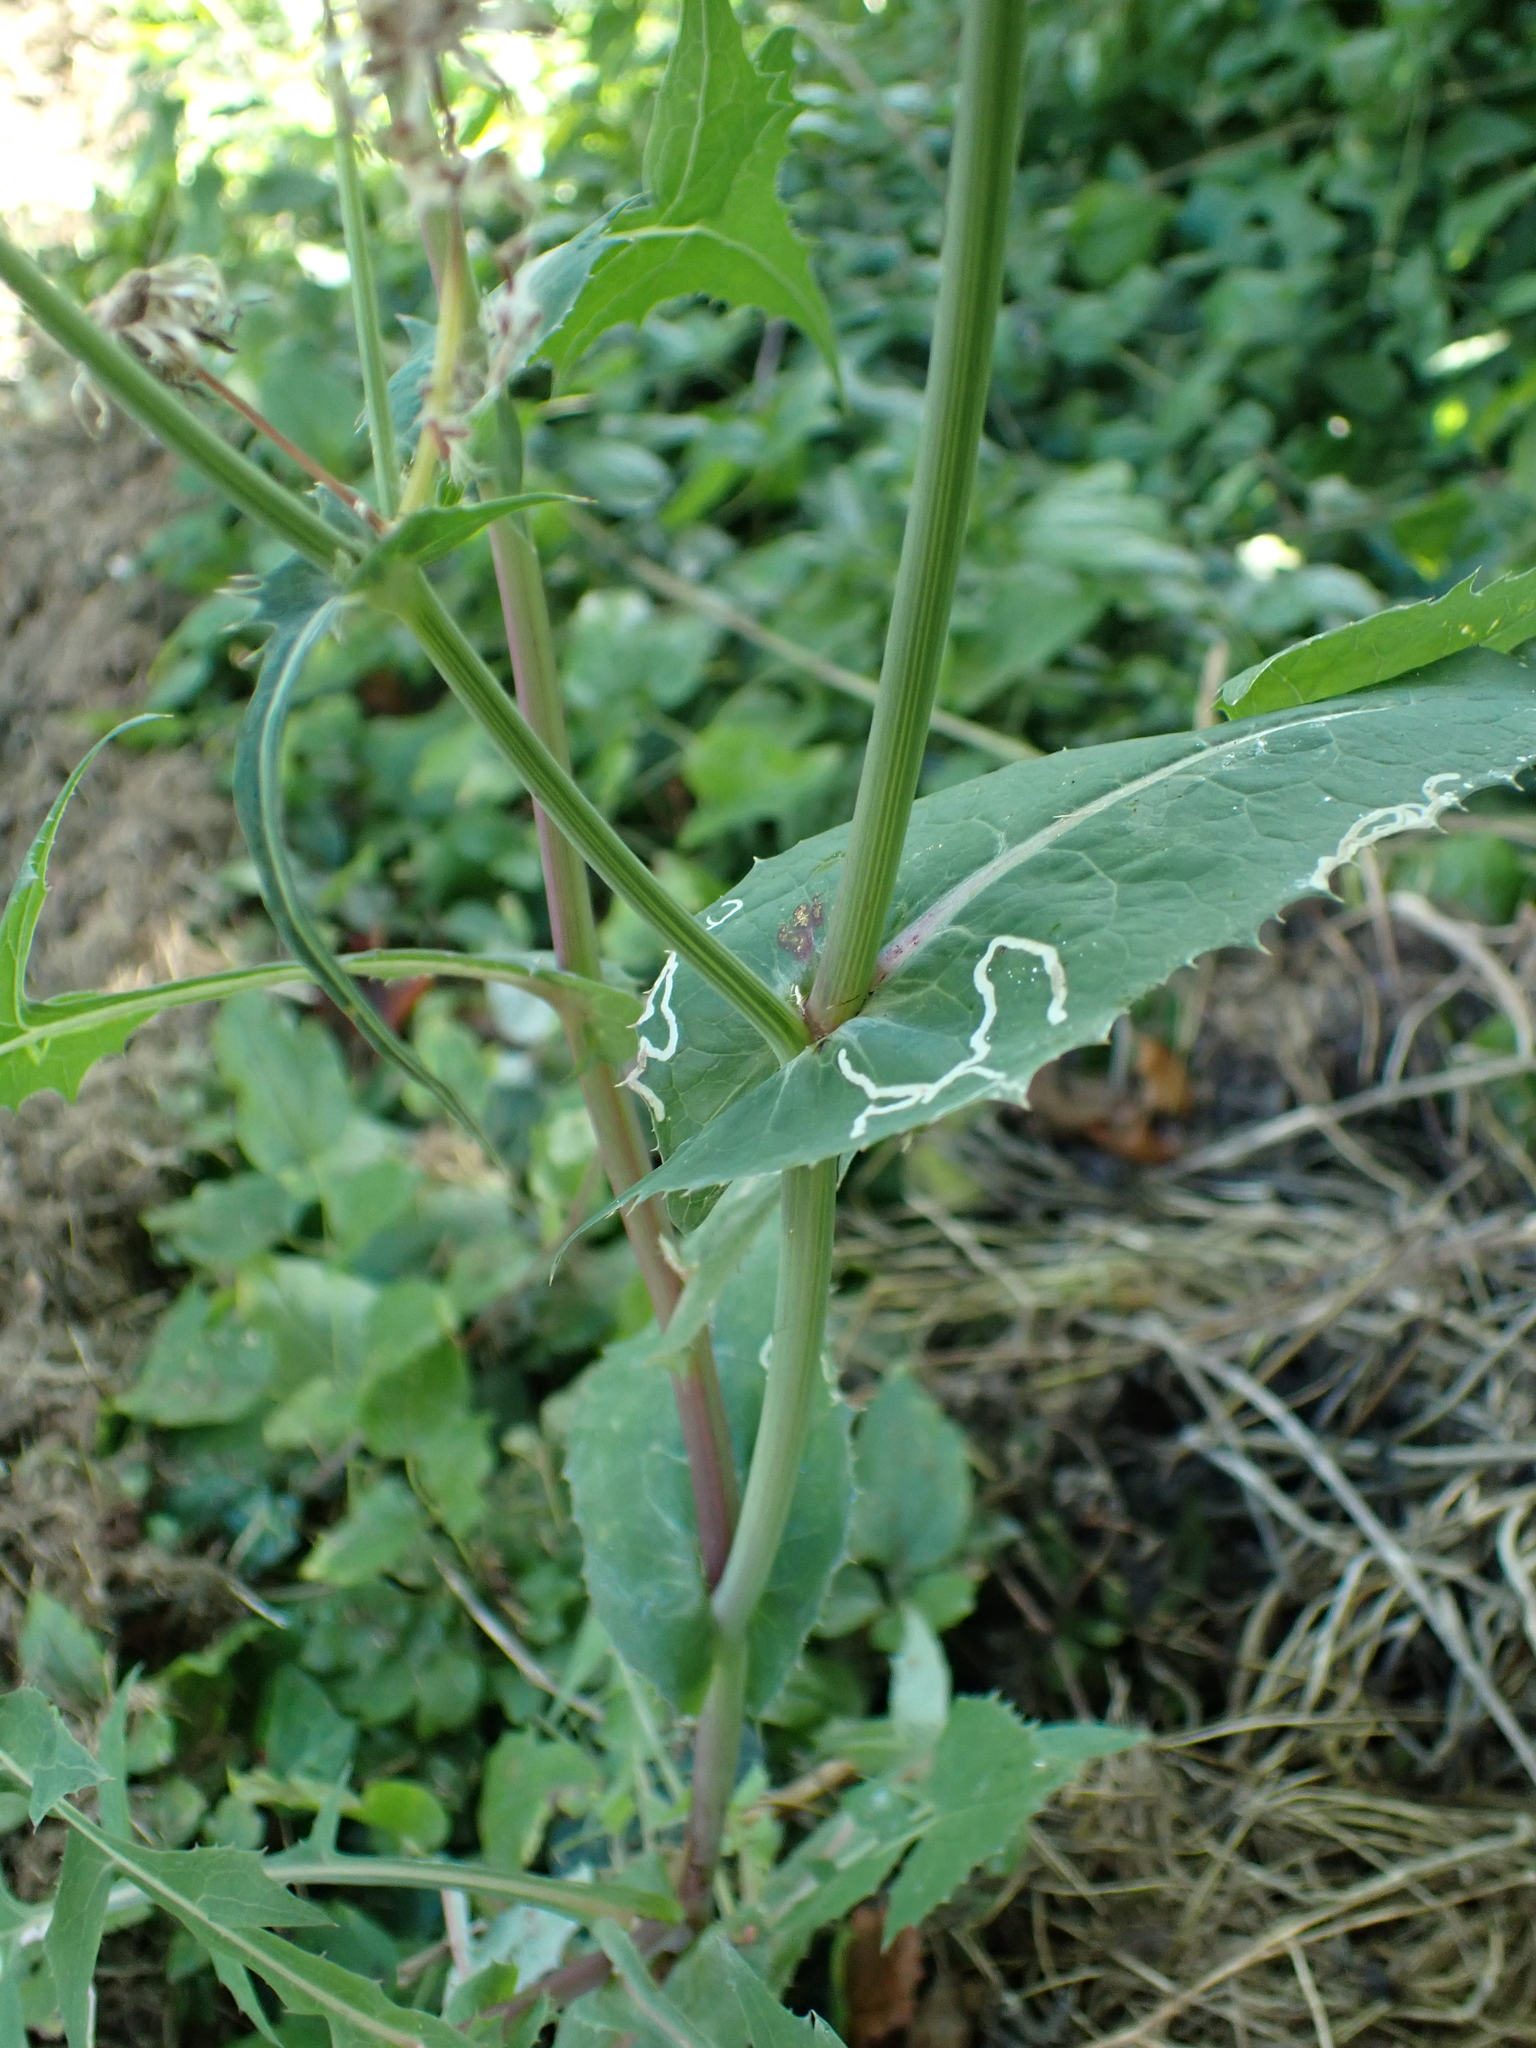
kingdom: Plantae
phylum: Tracheophyta
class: Magnoliopsida
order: Asterales
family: Asteraceae
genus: Sonchus
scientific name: Sonchus oleraceus
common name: Common sowthistle
